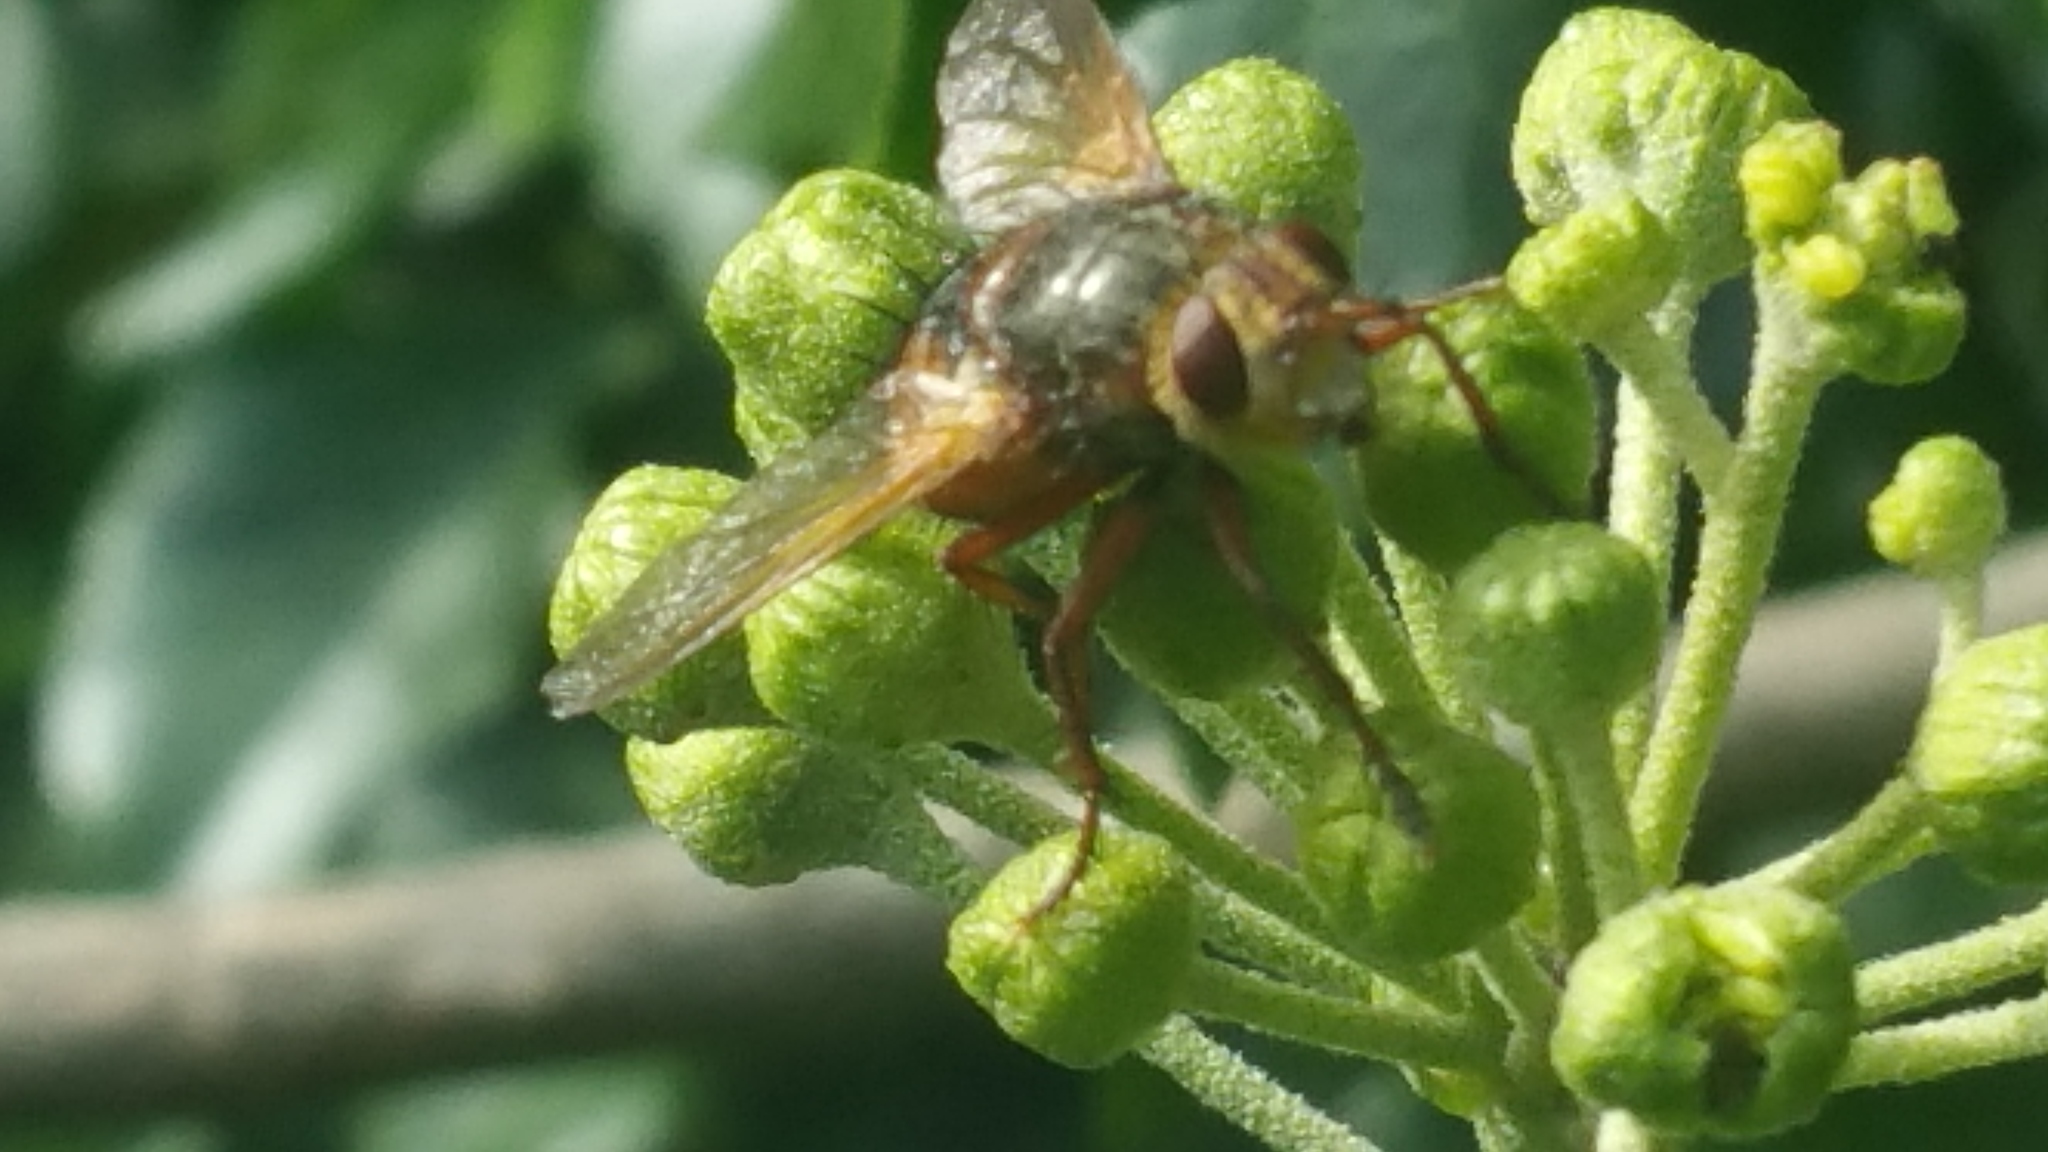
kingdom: Animalia
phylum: Arthropoda
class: Insecta
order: Diptera
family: Tachinidae
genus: Tachina
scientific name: Tachina fera
